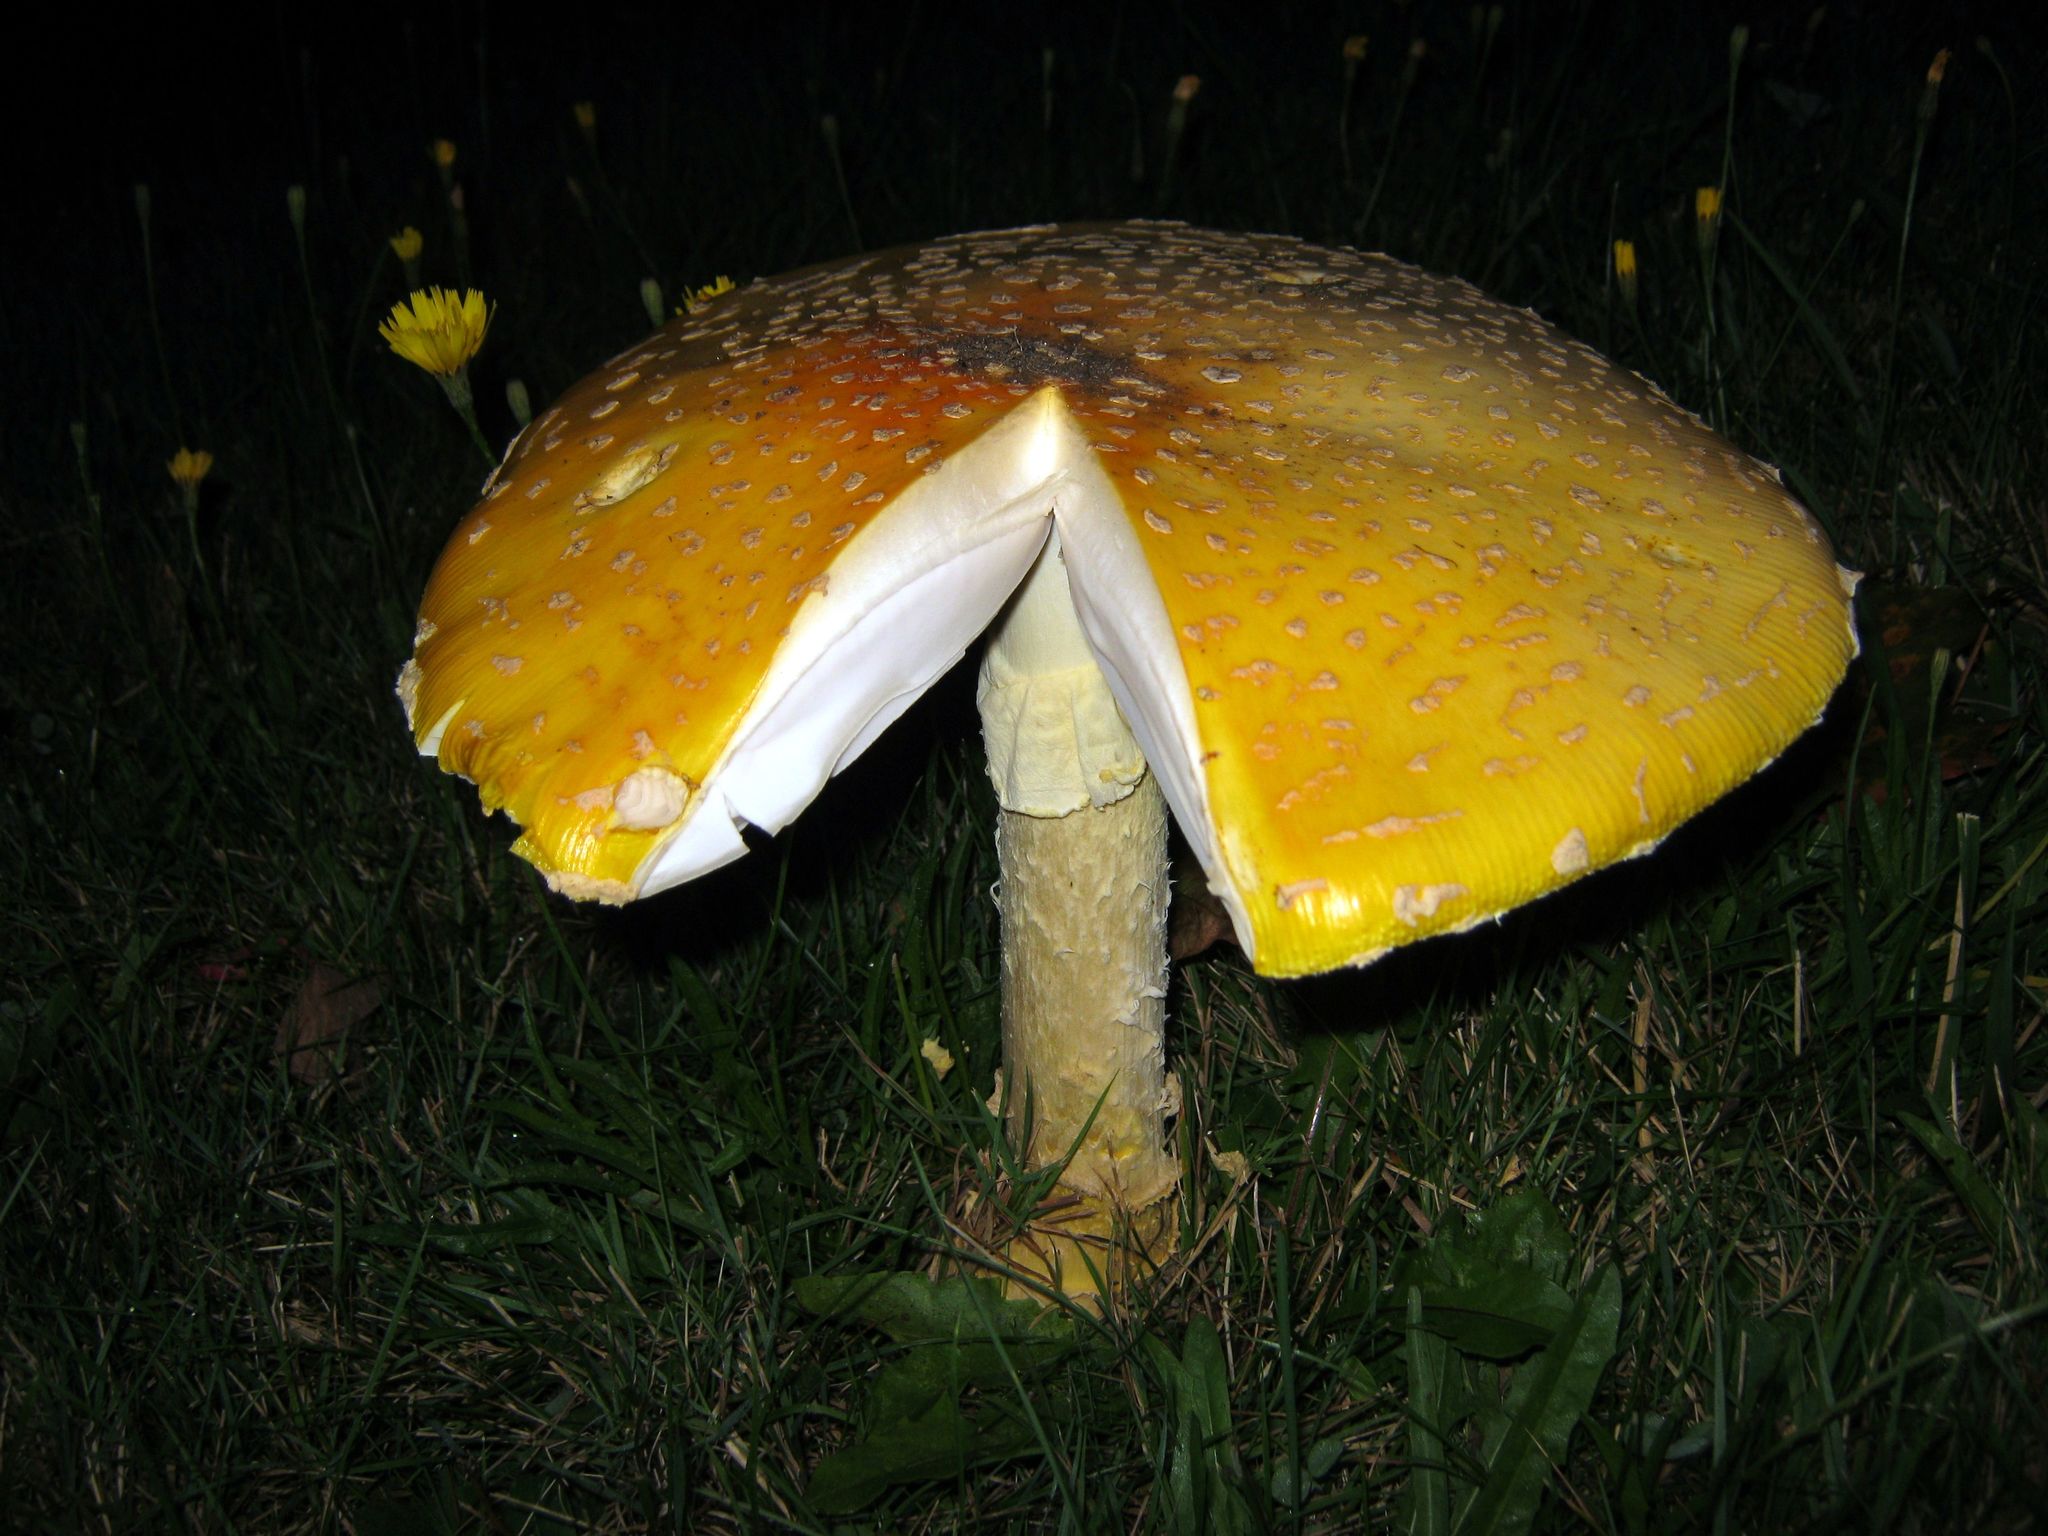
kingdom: Fungi
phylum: Basidiomycota
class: Agaricomycetes
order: Agaricales
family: Amanitaceae
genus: Amanita
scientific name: Amanita muscaria
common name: Fly agaric
